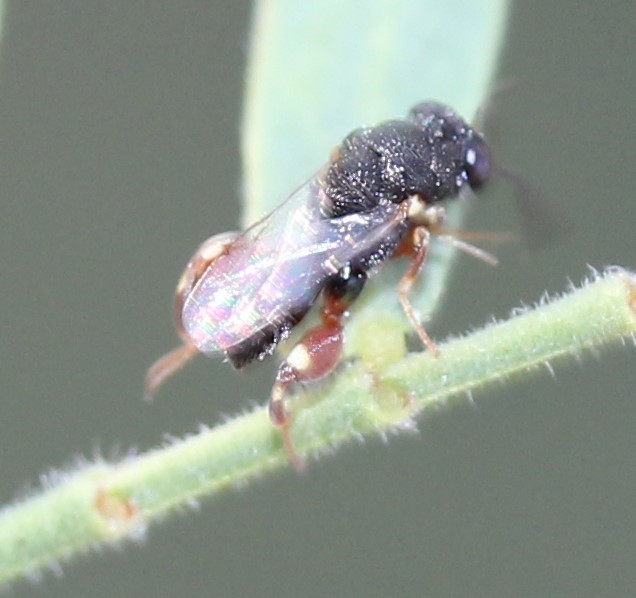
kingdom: Animalia
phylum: Arthropoda
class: Insecta
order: Hymenoptera
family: Chalcididae
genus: Brachymeria
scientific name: Brachymeria podagrica
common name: Chalcid wasp
